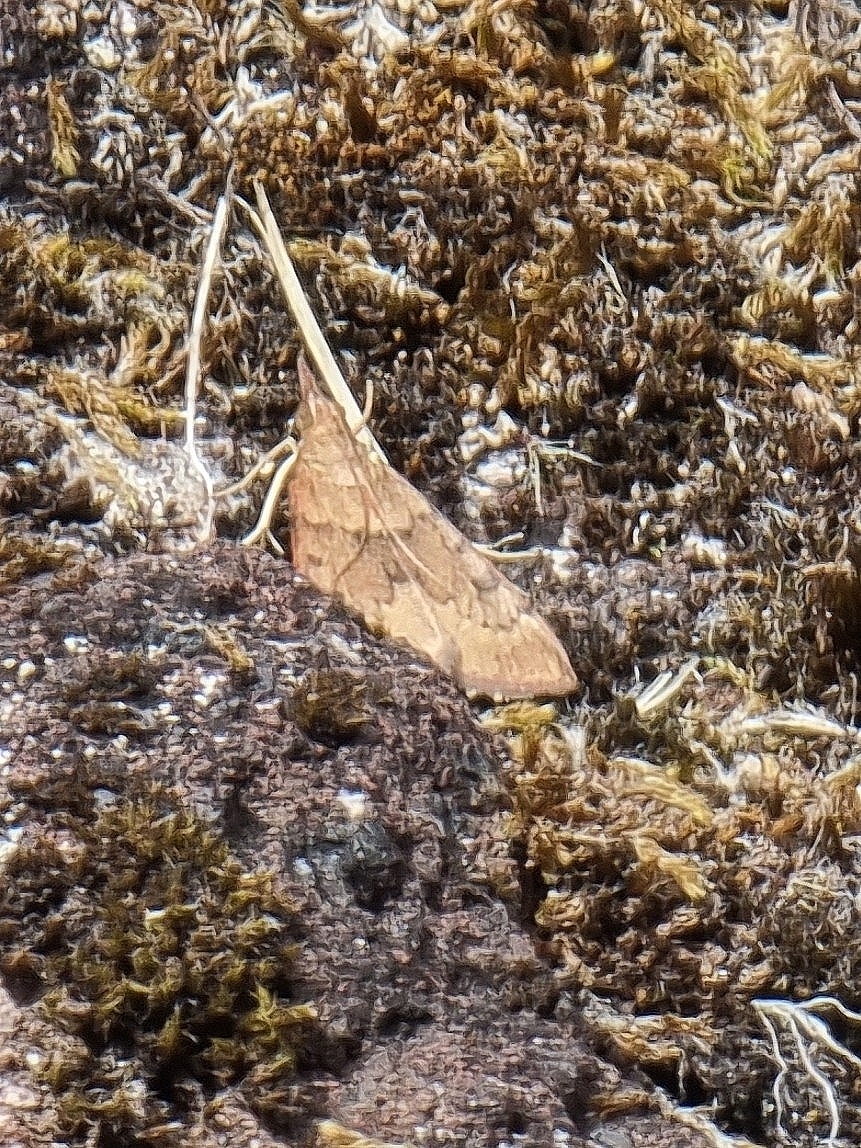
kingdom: Animalia
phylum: Arthropoda
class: Insecta
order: Lepidoptera
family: Crambidae
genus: Uresiphita
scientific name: Uresiphita gilvata
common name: Yellow-underwing pearl
